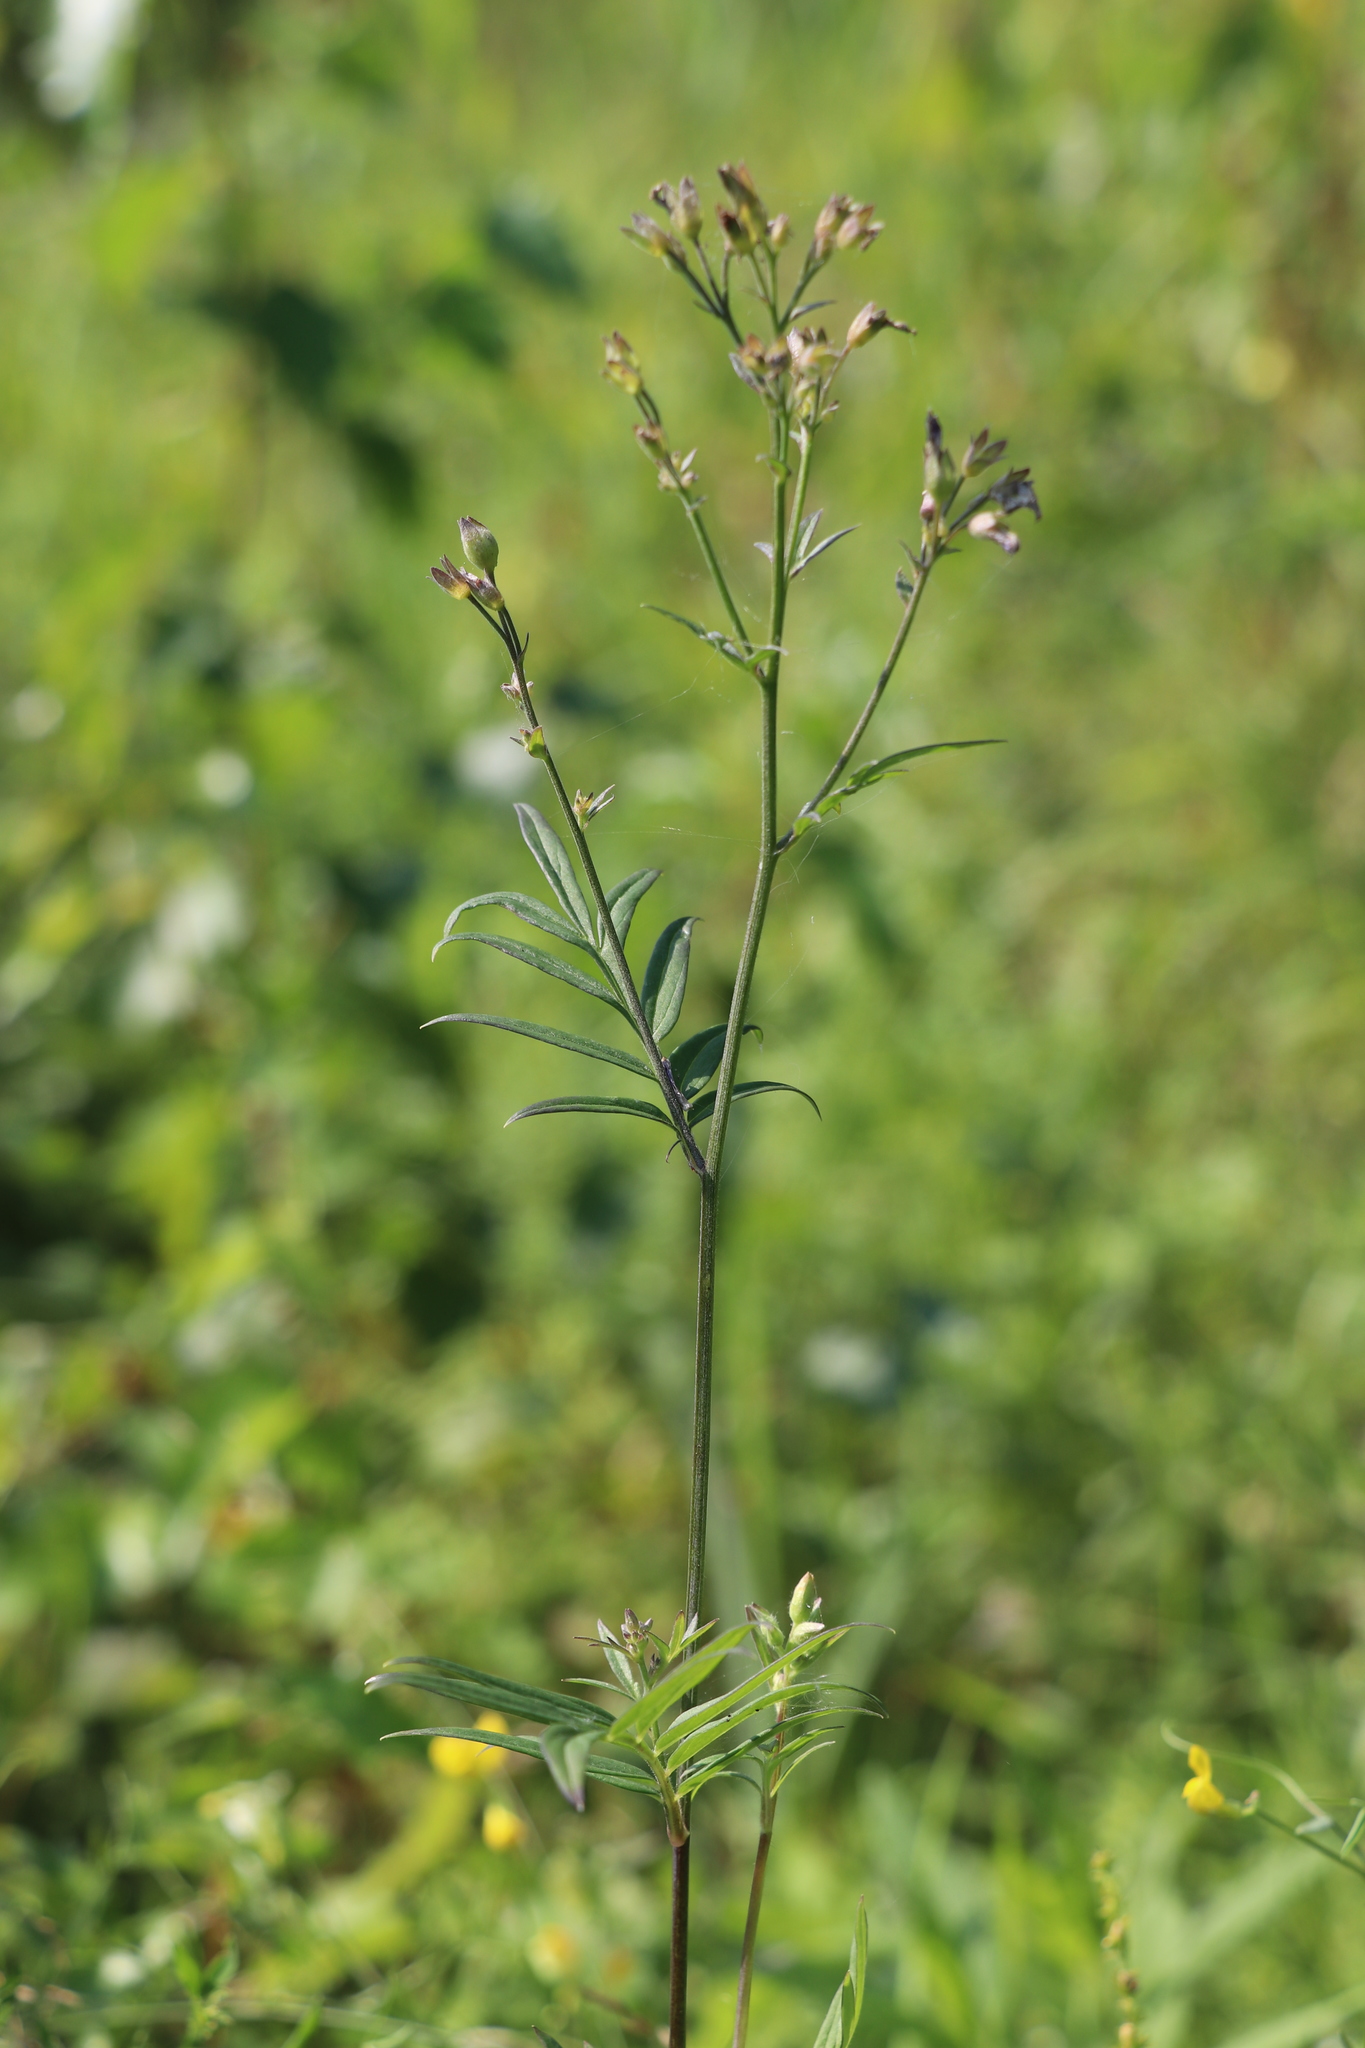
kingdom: Plantae
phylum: Tracheophyta
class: Magnoliopsida
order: Ericales
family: Polemoniaceae
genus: Polemonium
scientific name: Polemonium caeruleum
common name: Jacob's-ladder
